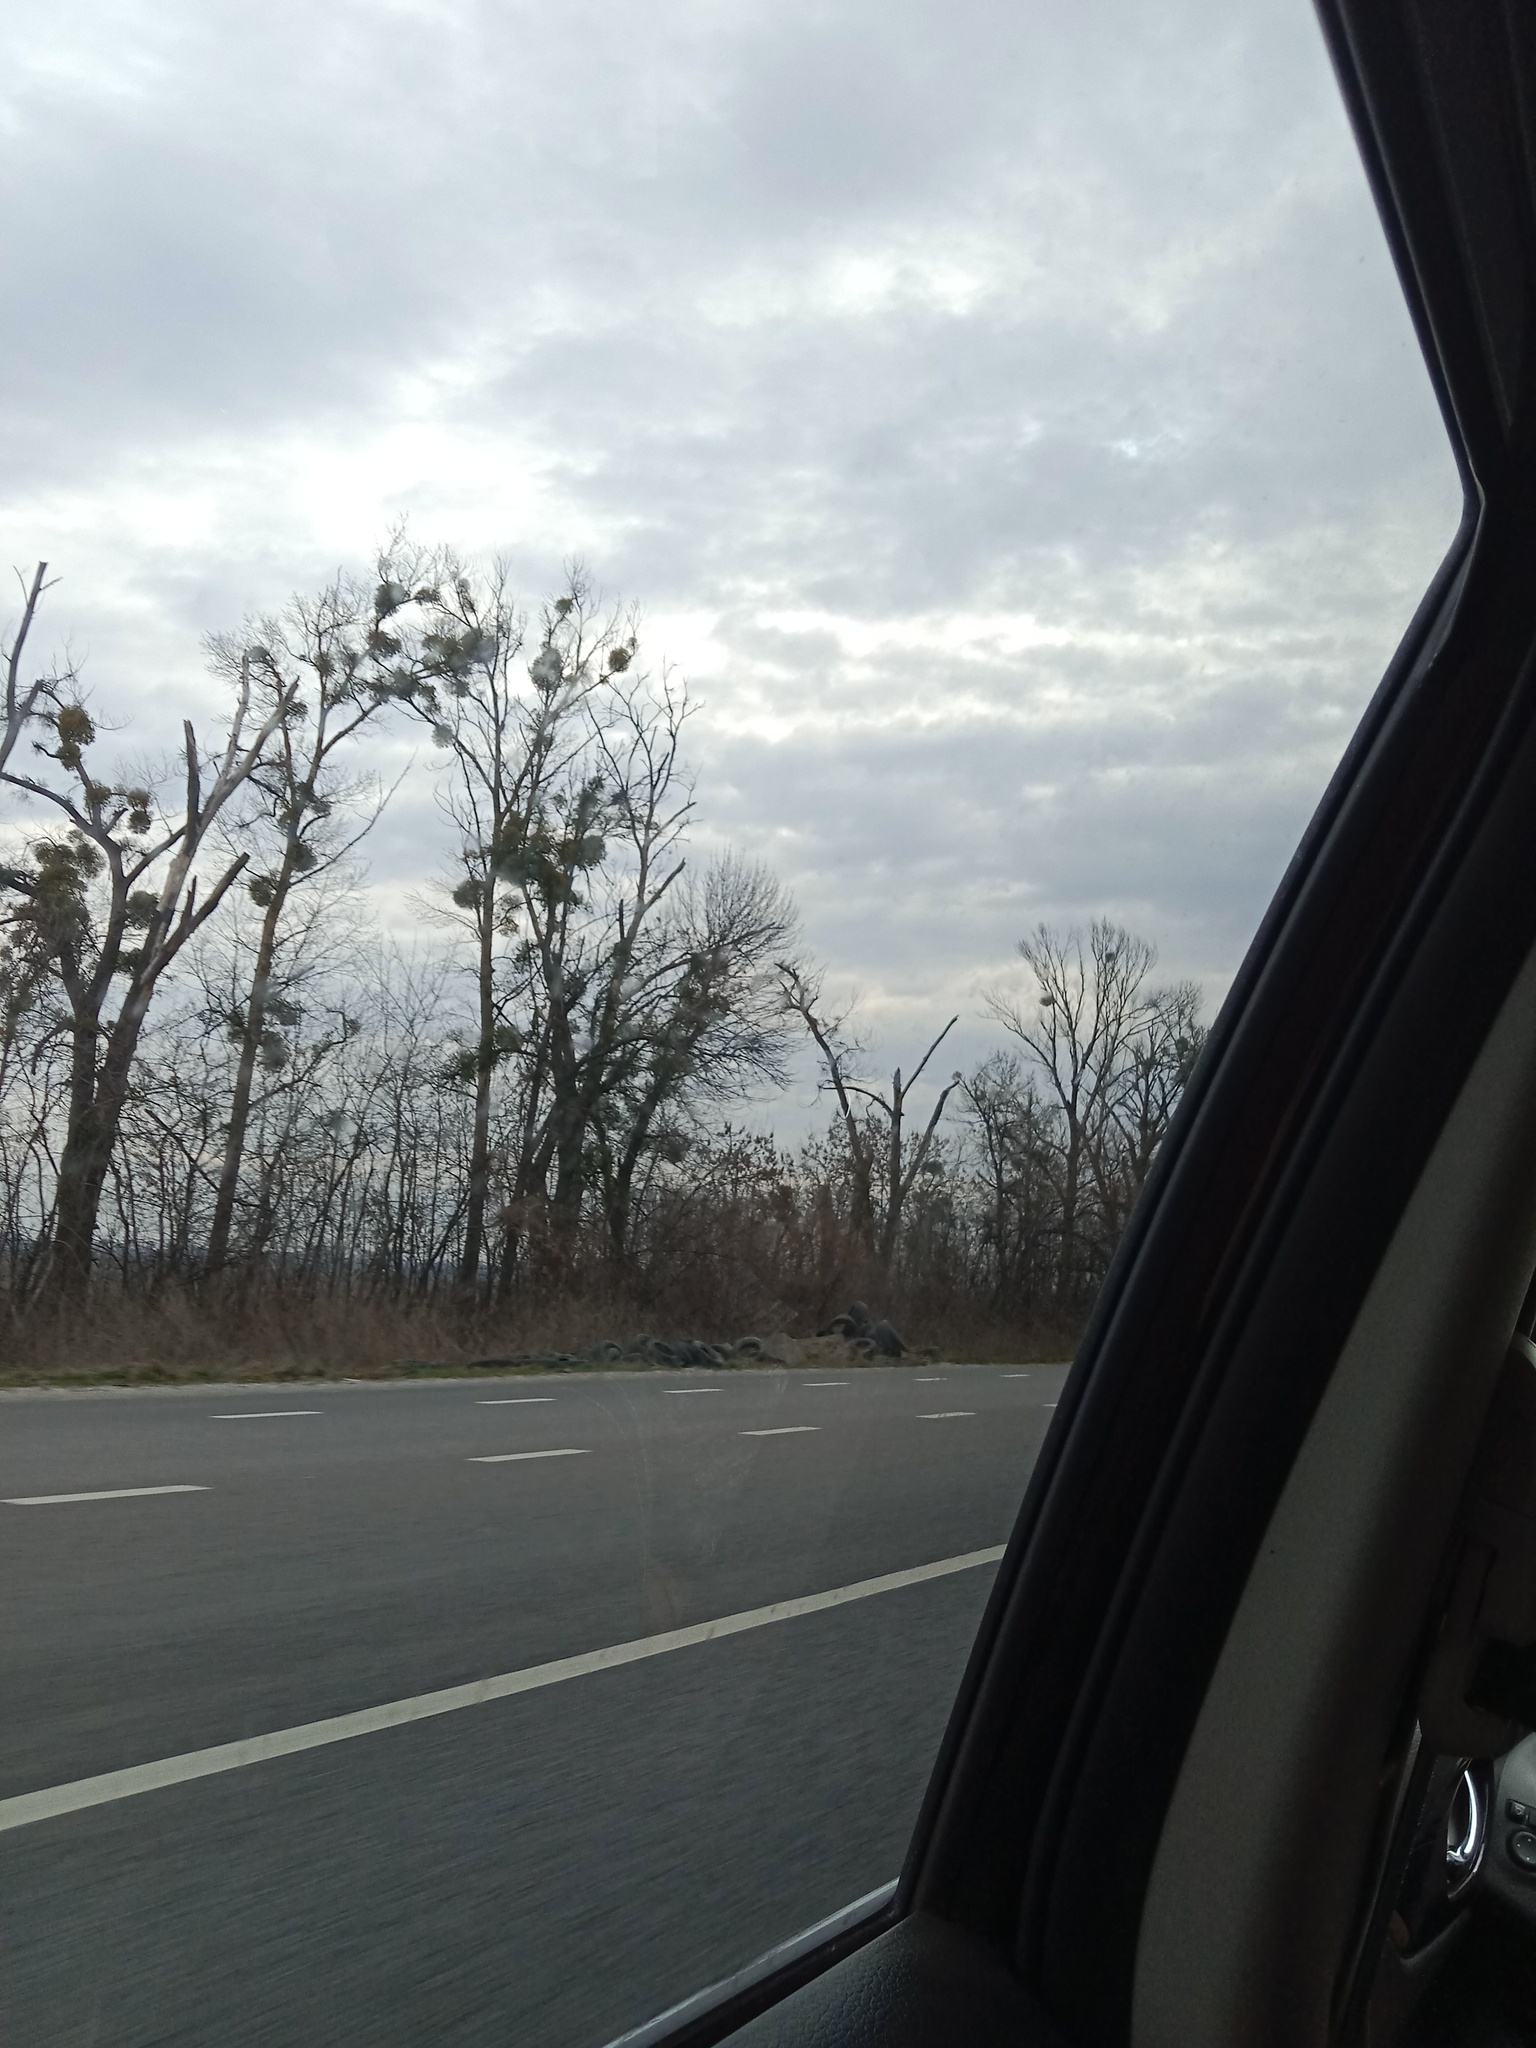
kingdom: Plantae
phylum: Tracheophyta
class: Magnoliopsida
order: Santalales
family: Viscaceae
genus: Viscum
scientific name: Viscum album
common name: Mistletoe
